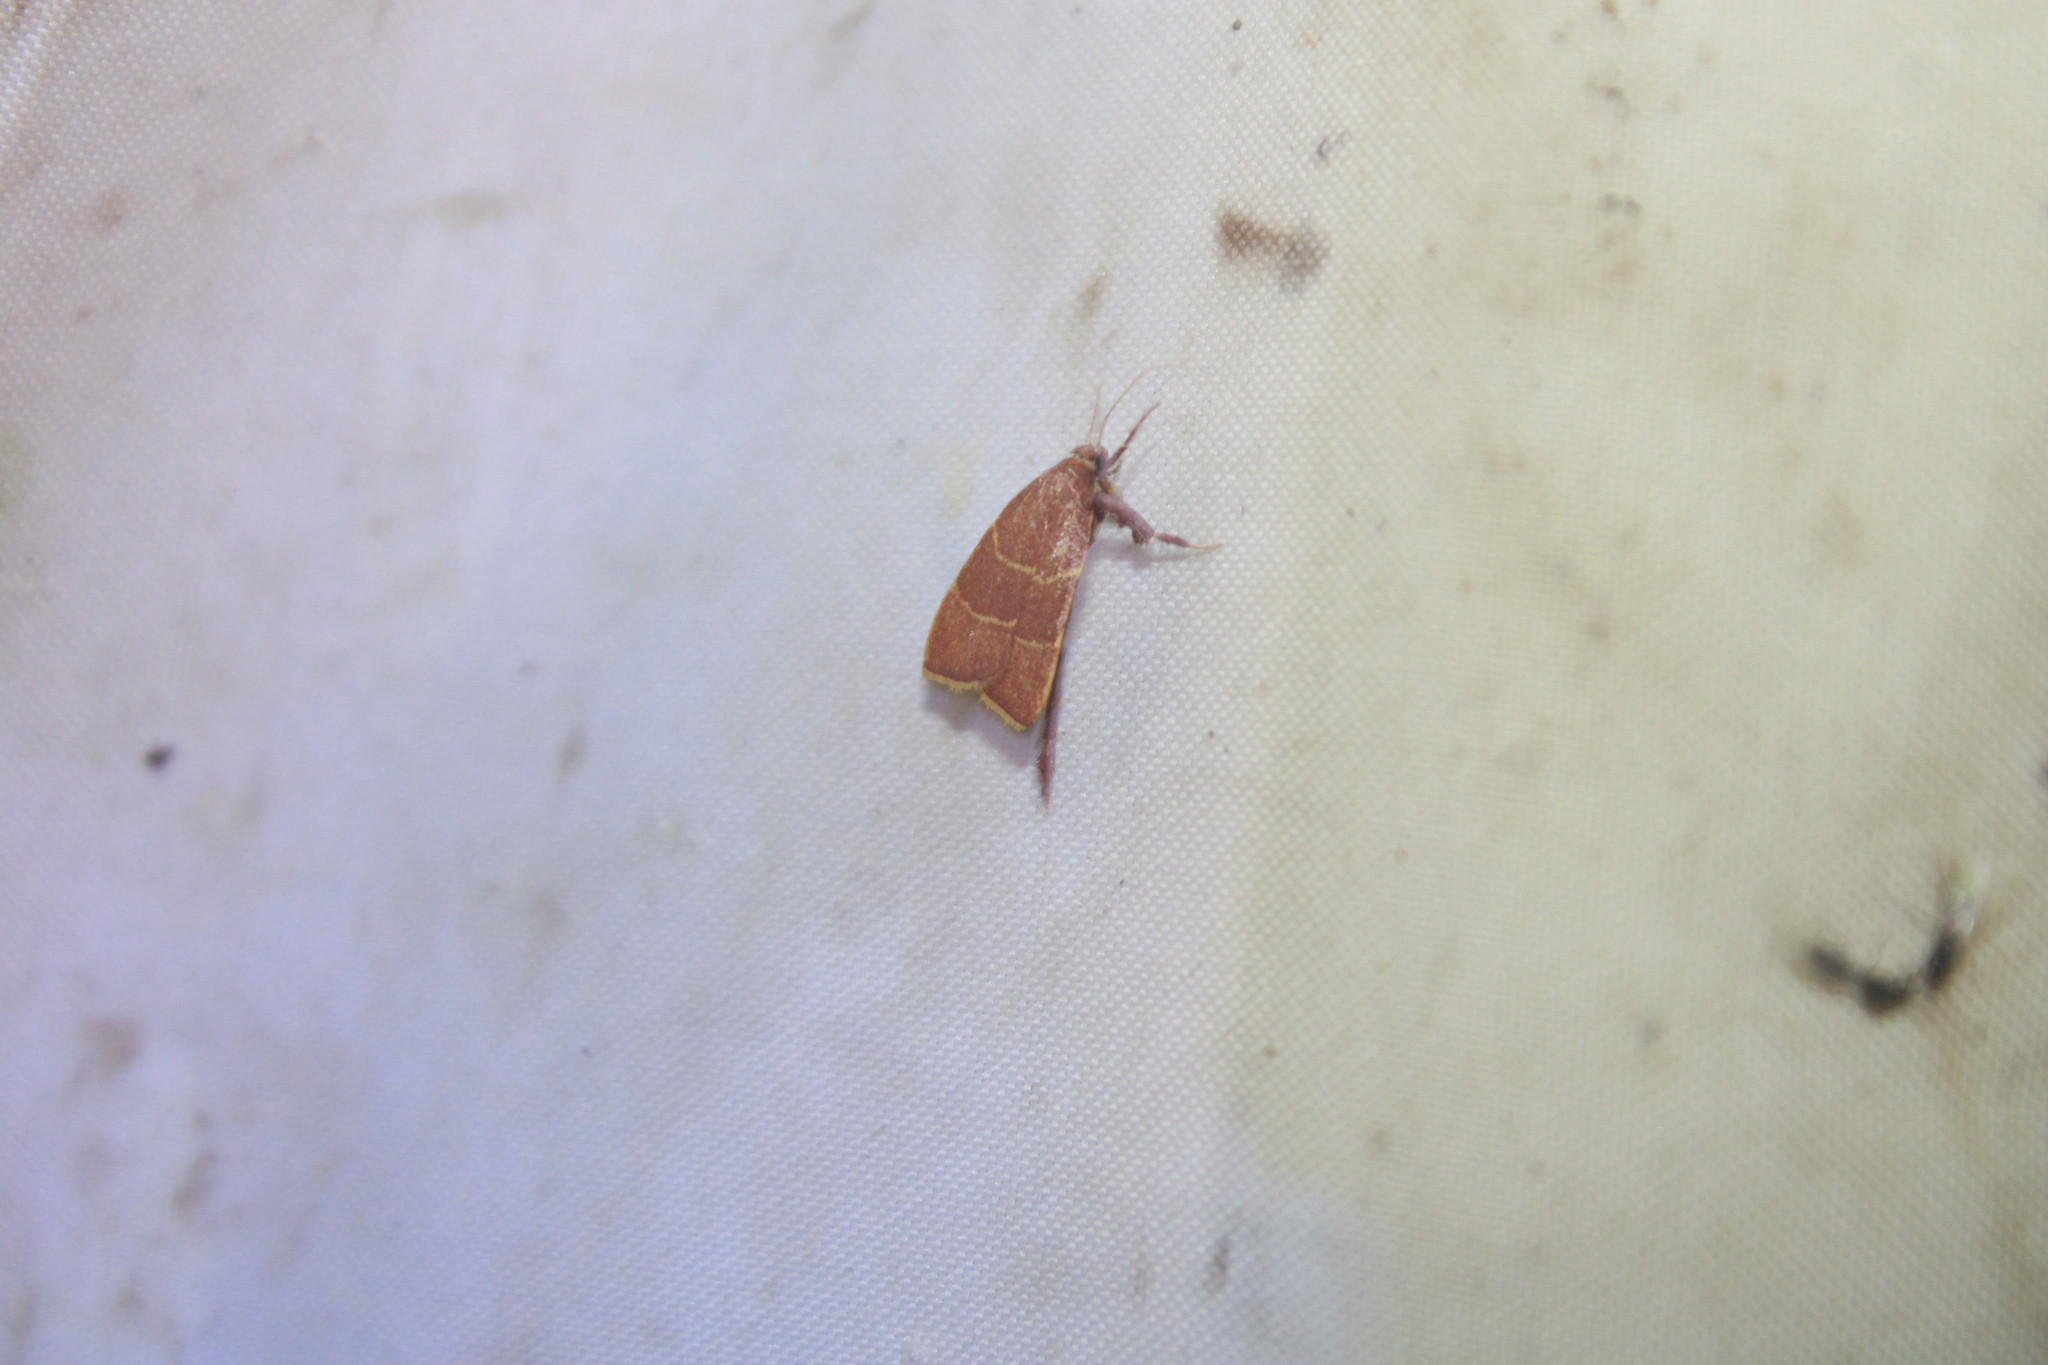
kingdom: Animalia
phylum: Arthropoda
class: Insecta
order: Lepidoptera
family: Pyralidae
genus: Parachma
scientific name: Parachma ochracealis
